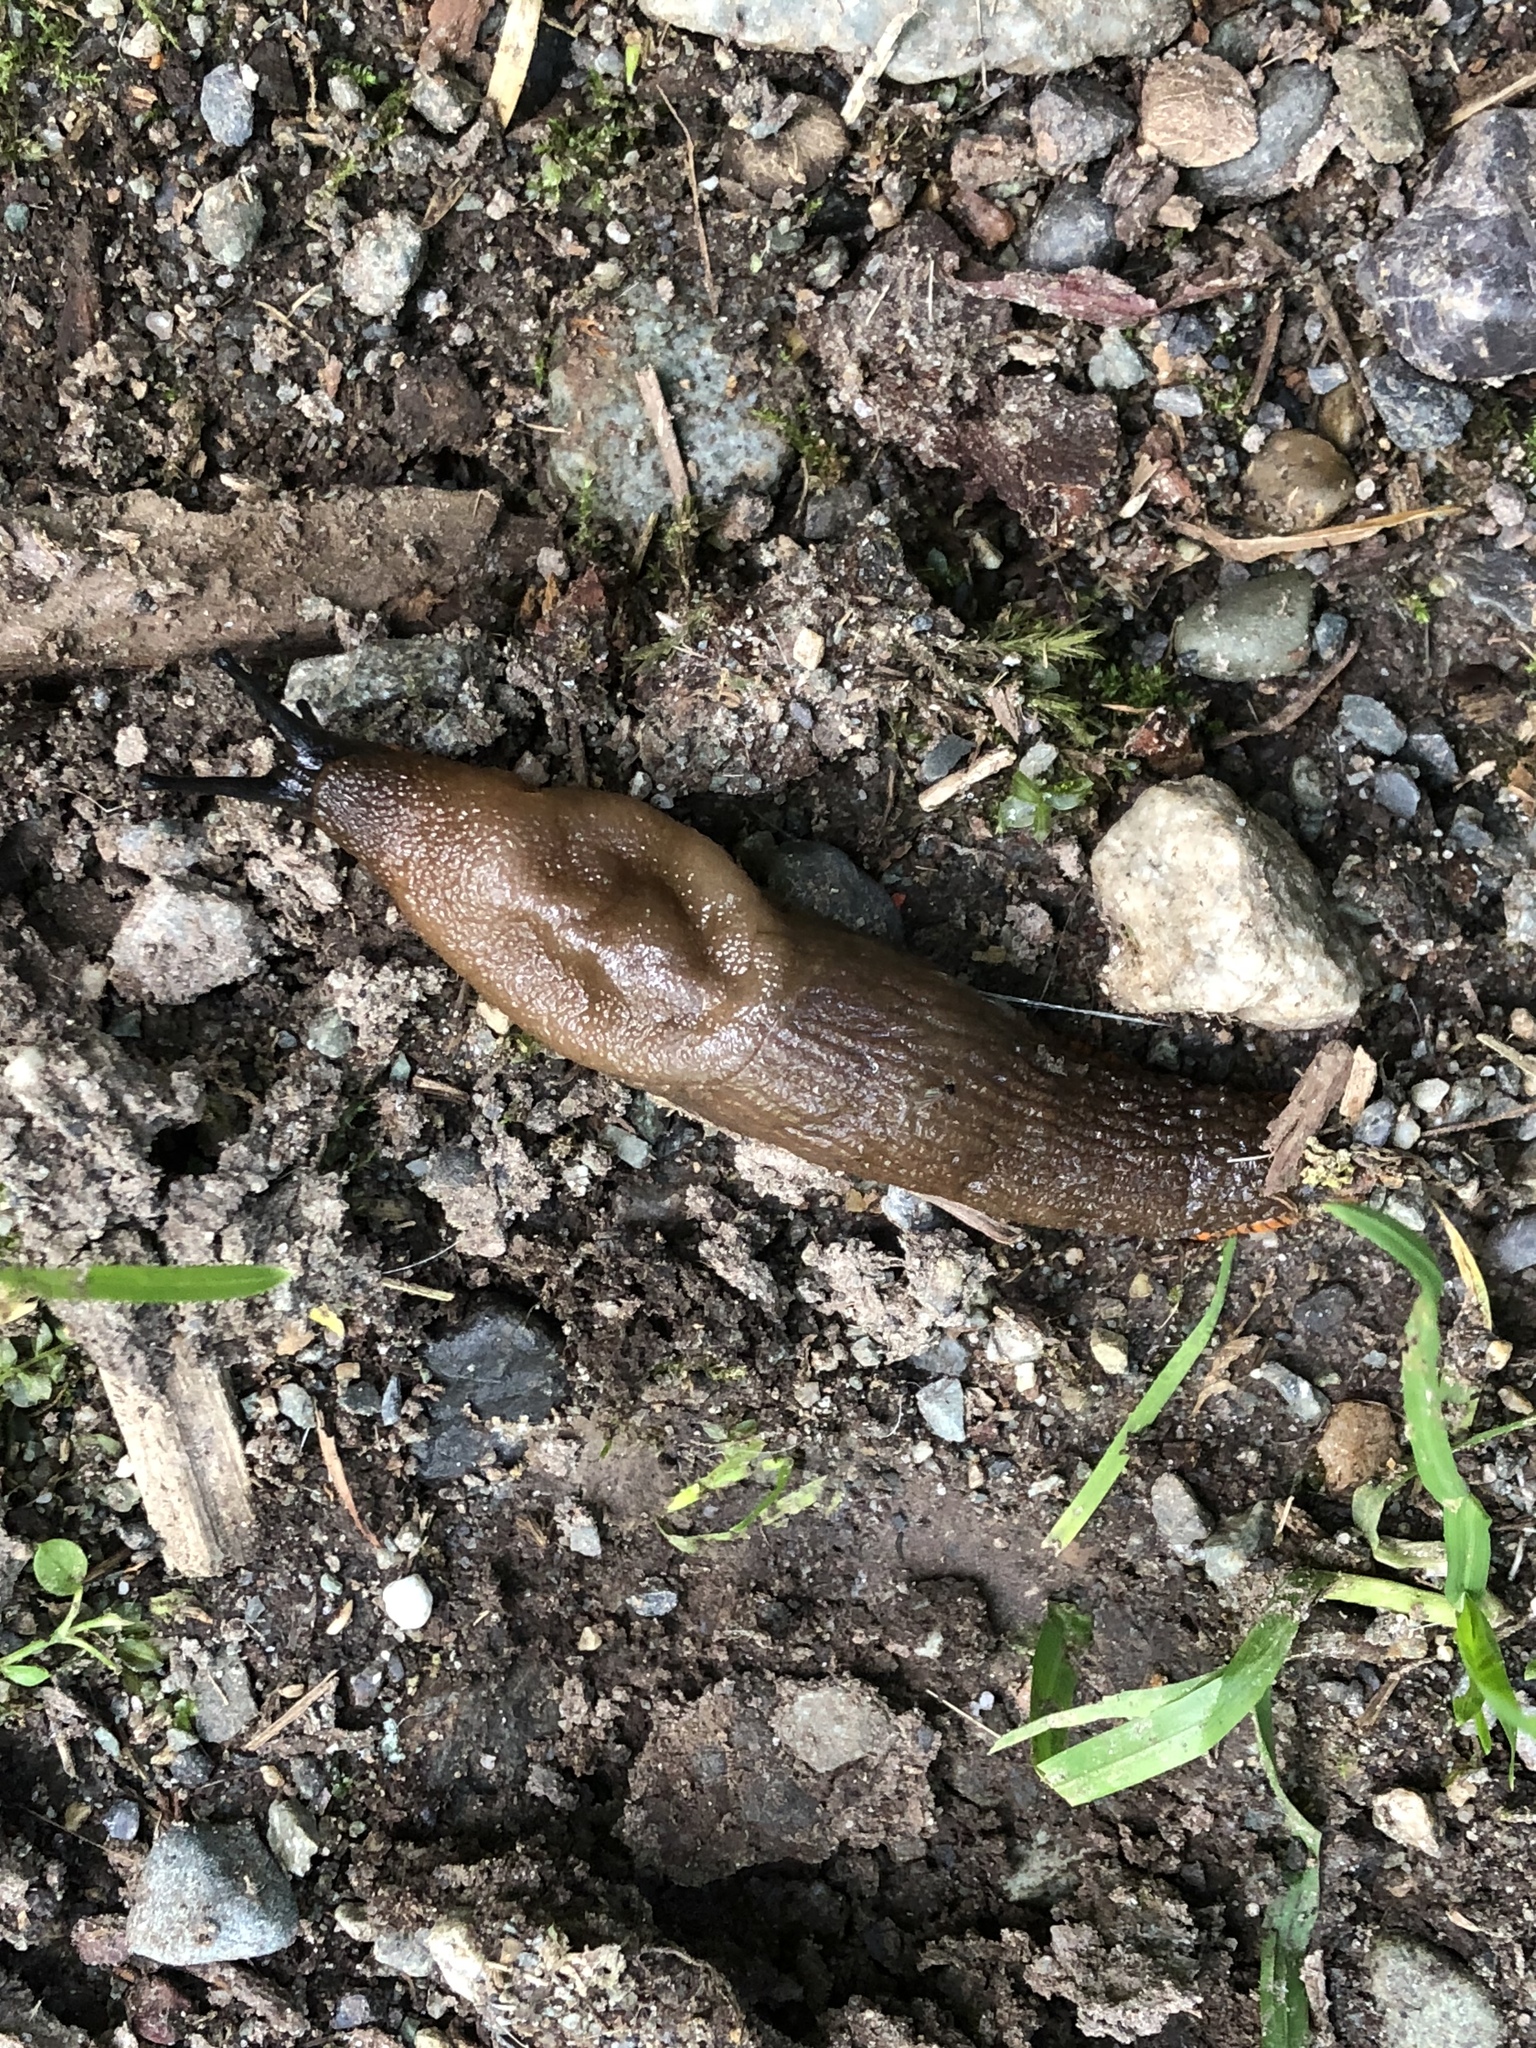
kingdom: Animalia
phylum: Mollusca
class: Gastropoda
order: Stylommatophora
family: Arionidae
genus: Arion
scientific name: Arion rufus
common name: Chocolate arion
